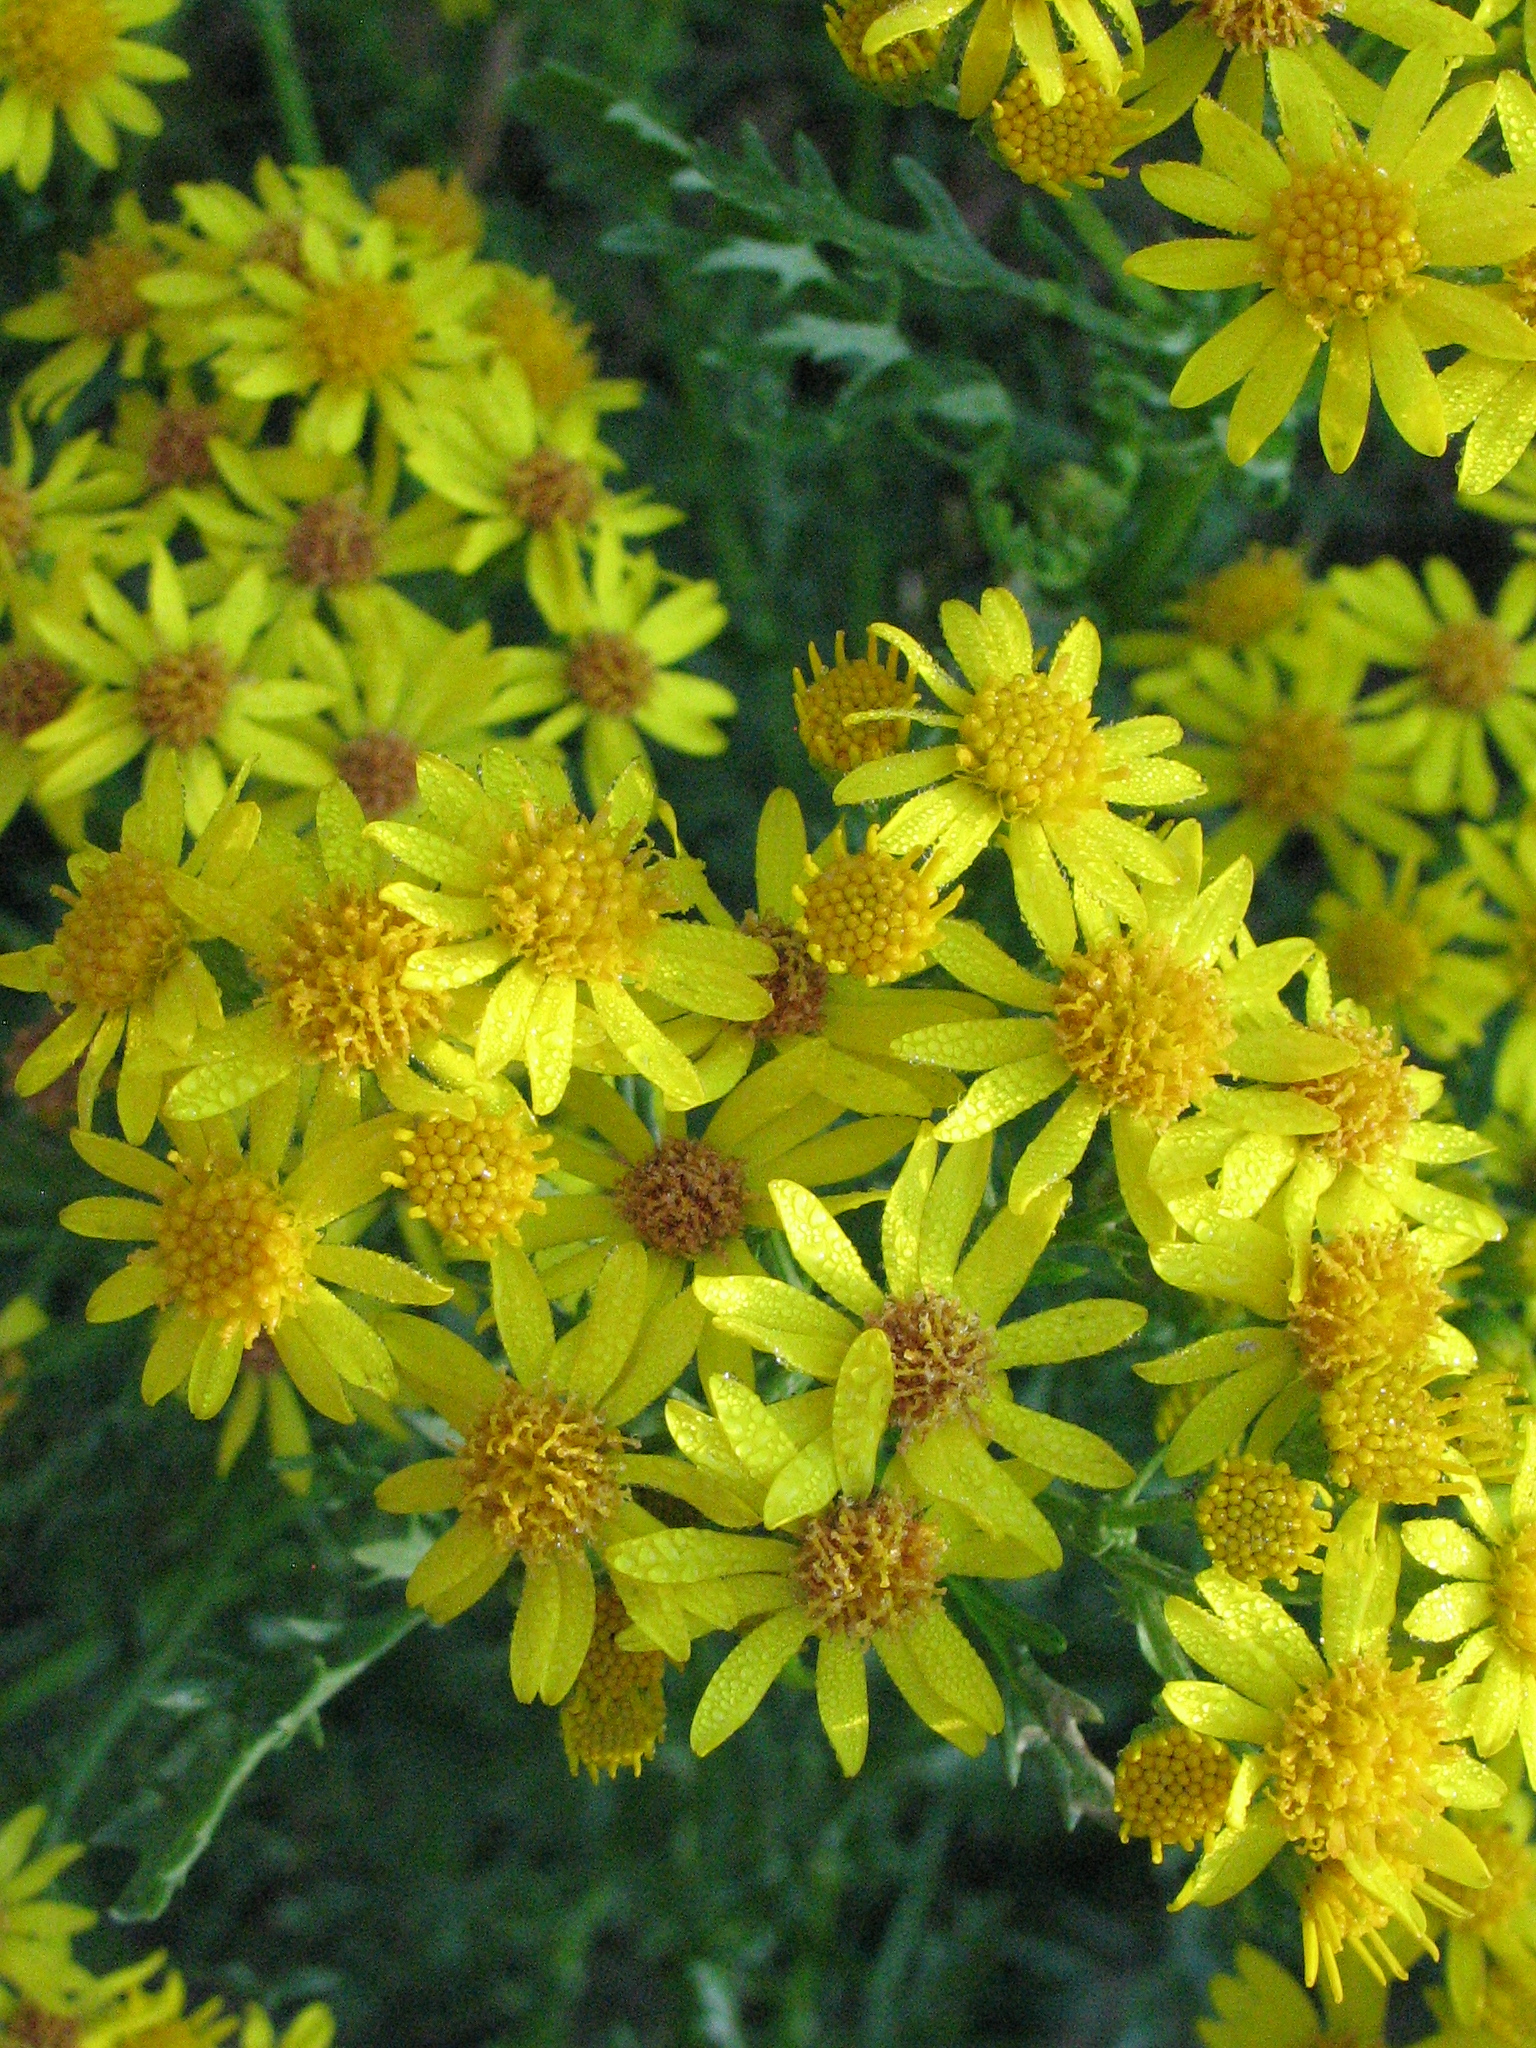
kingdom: Plantae
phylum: Tracheophyta
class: Magnoliopsida
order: Asterales
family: Asteraceae
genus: Jacobaea
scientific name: Jacobaea vulgaris
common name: Stinking willie
